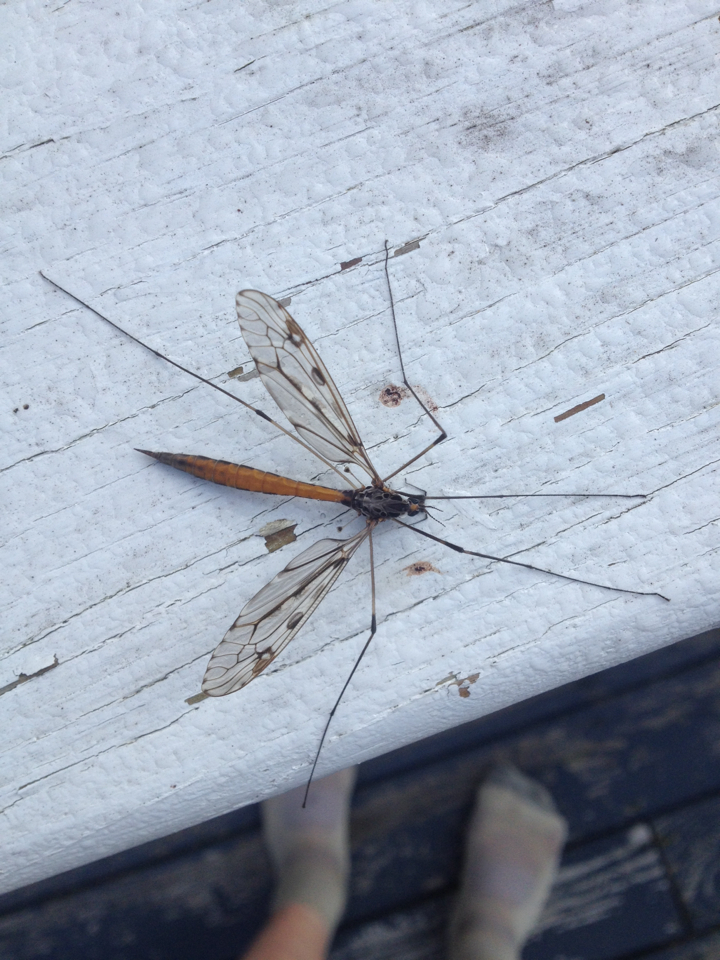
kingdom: Animalia
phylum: Arthropoda
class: Insecta
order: Diptera
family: Tipulidae
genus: Tipula
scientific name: Tipula abdominalis
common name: Giant crane fly
